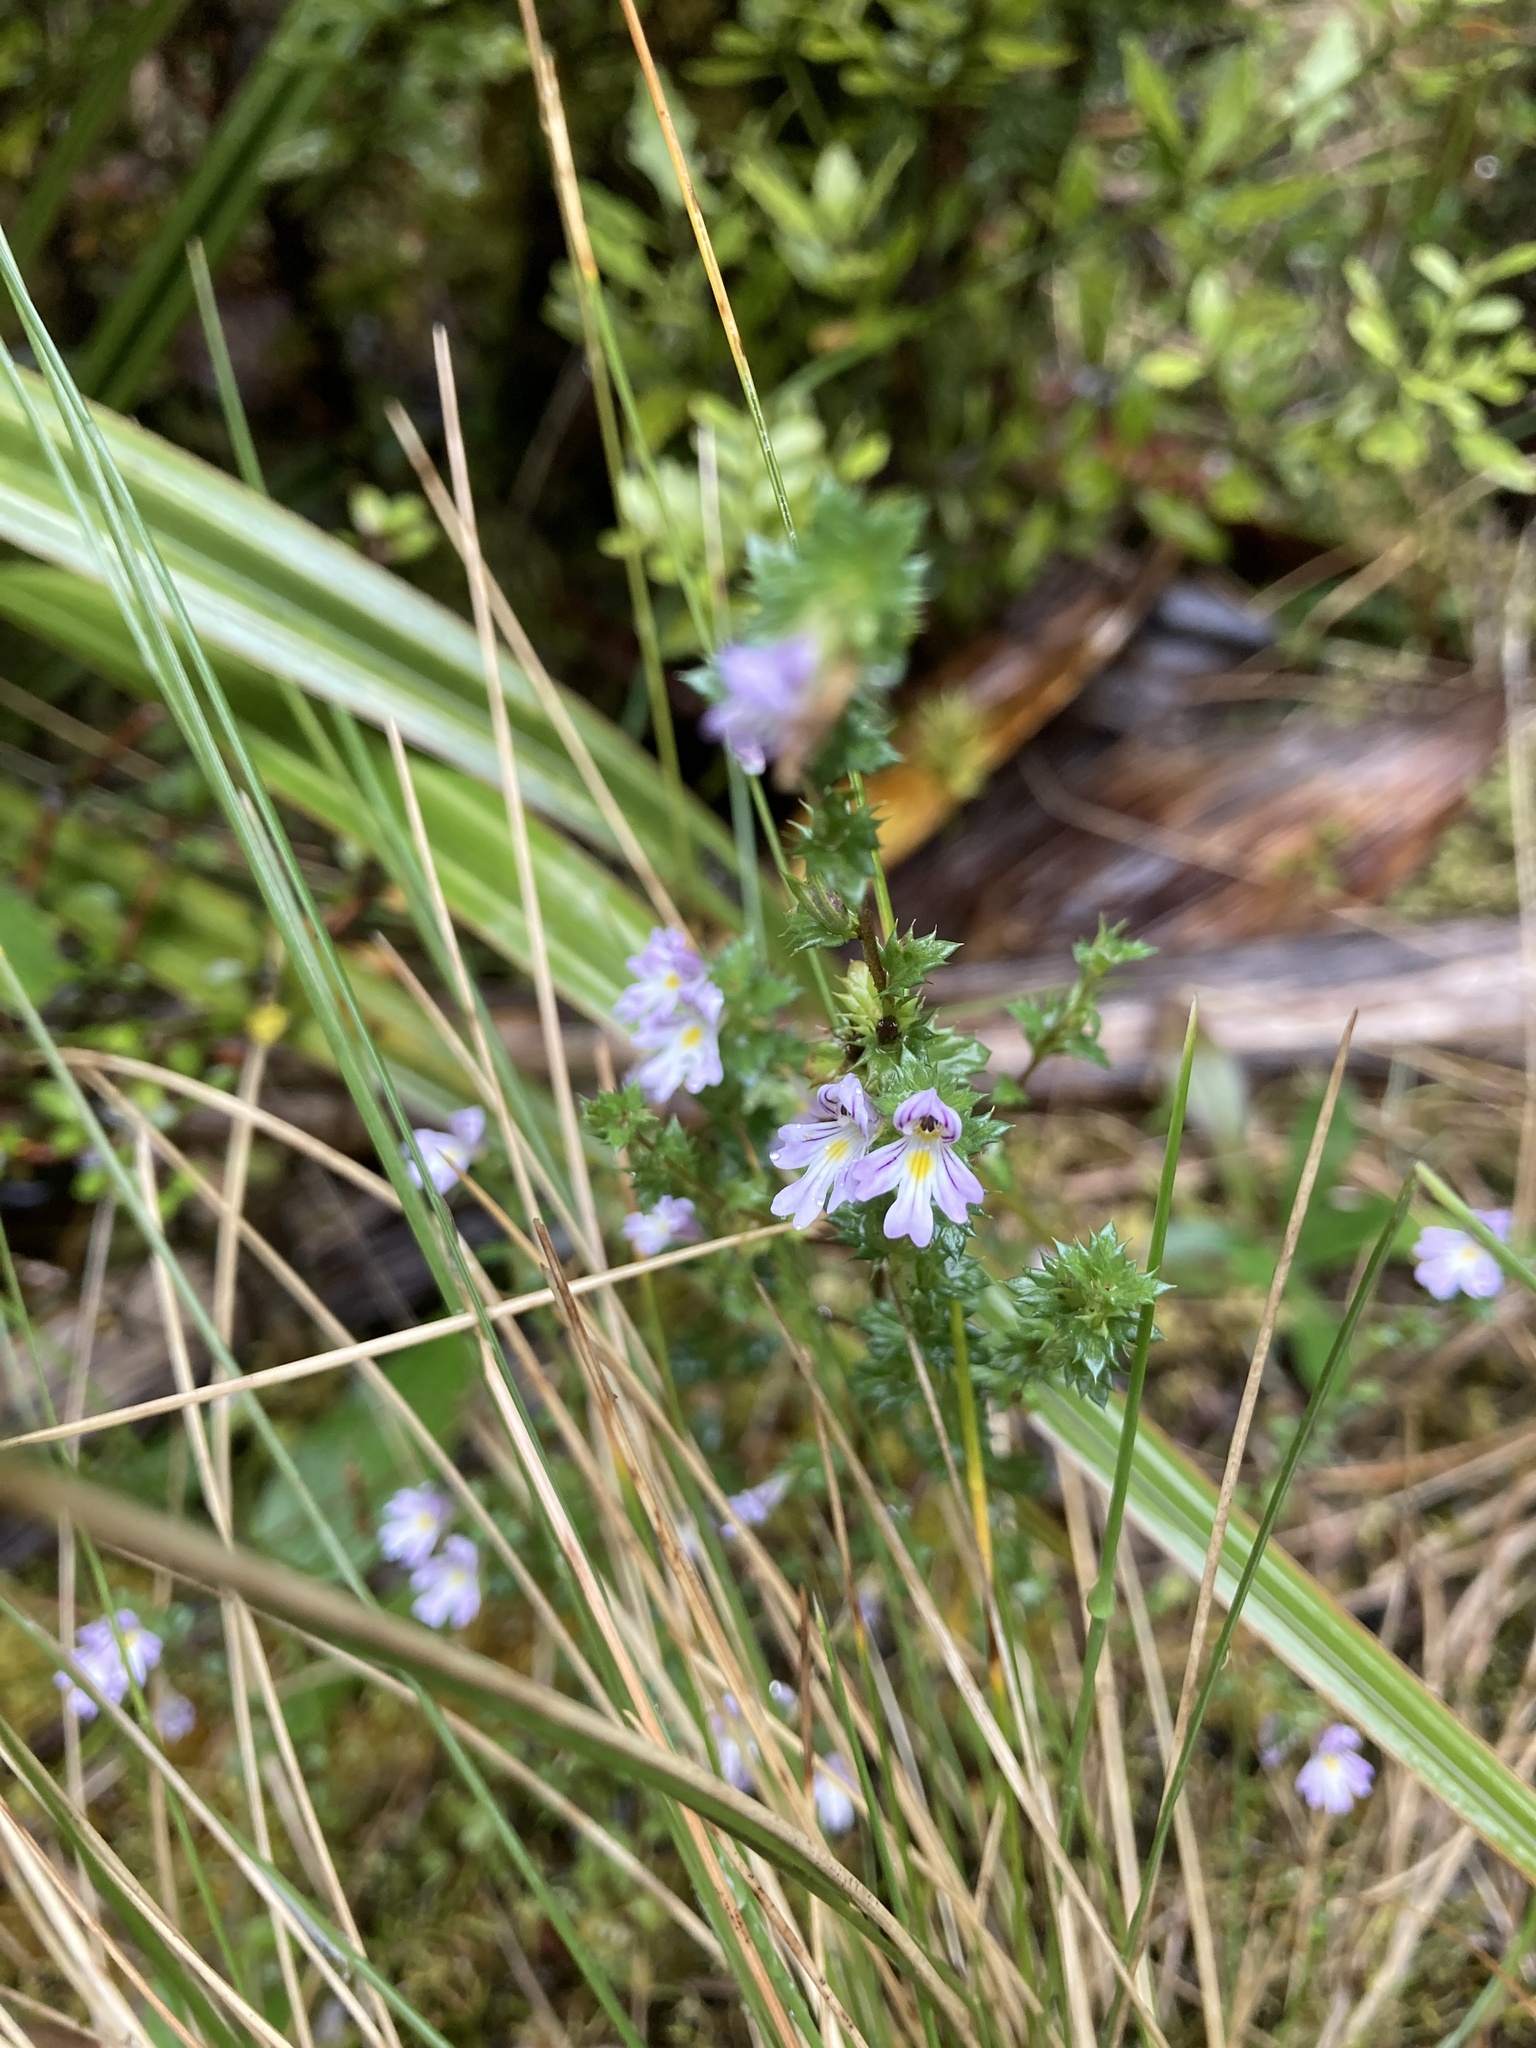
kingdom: Plantae
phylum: Tracheophyta
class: Magnoliopsida
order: Lamiales
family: Orobanchaceae
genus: Euphrasia
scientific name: Euphrasia nemorosa
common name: Common eyebright
